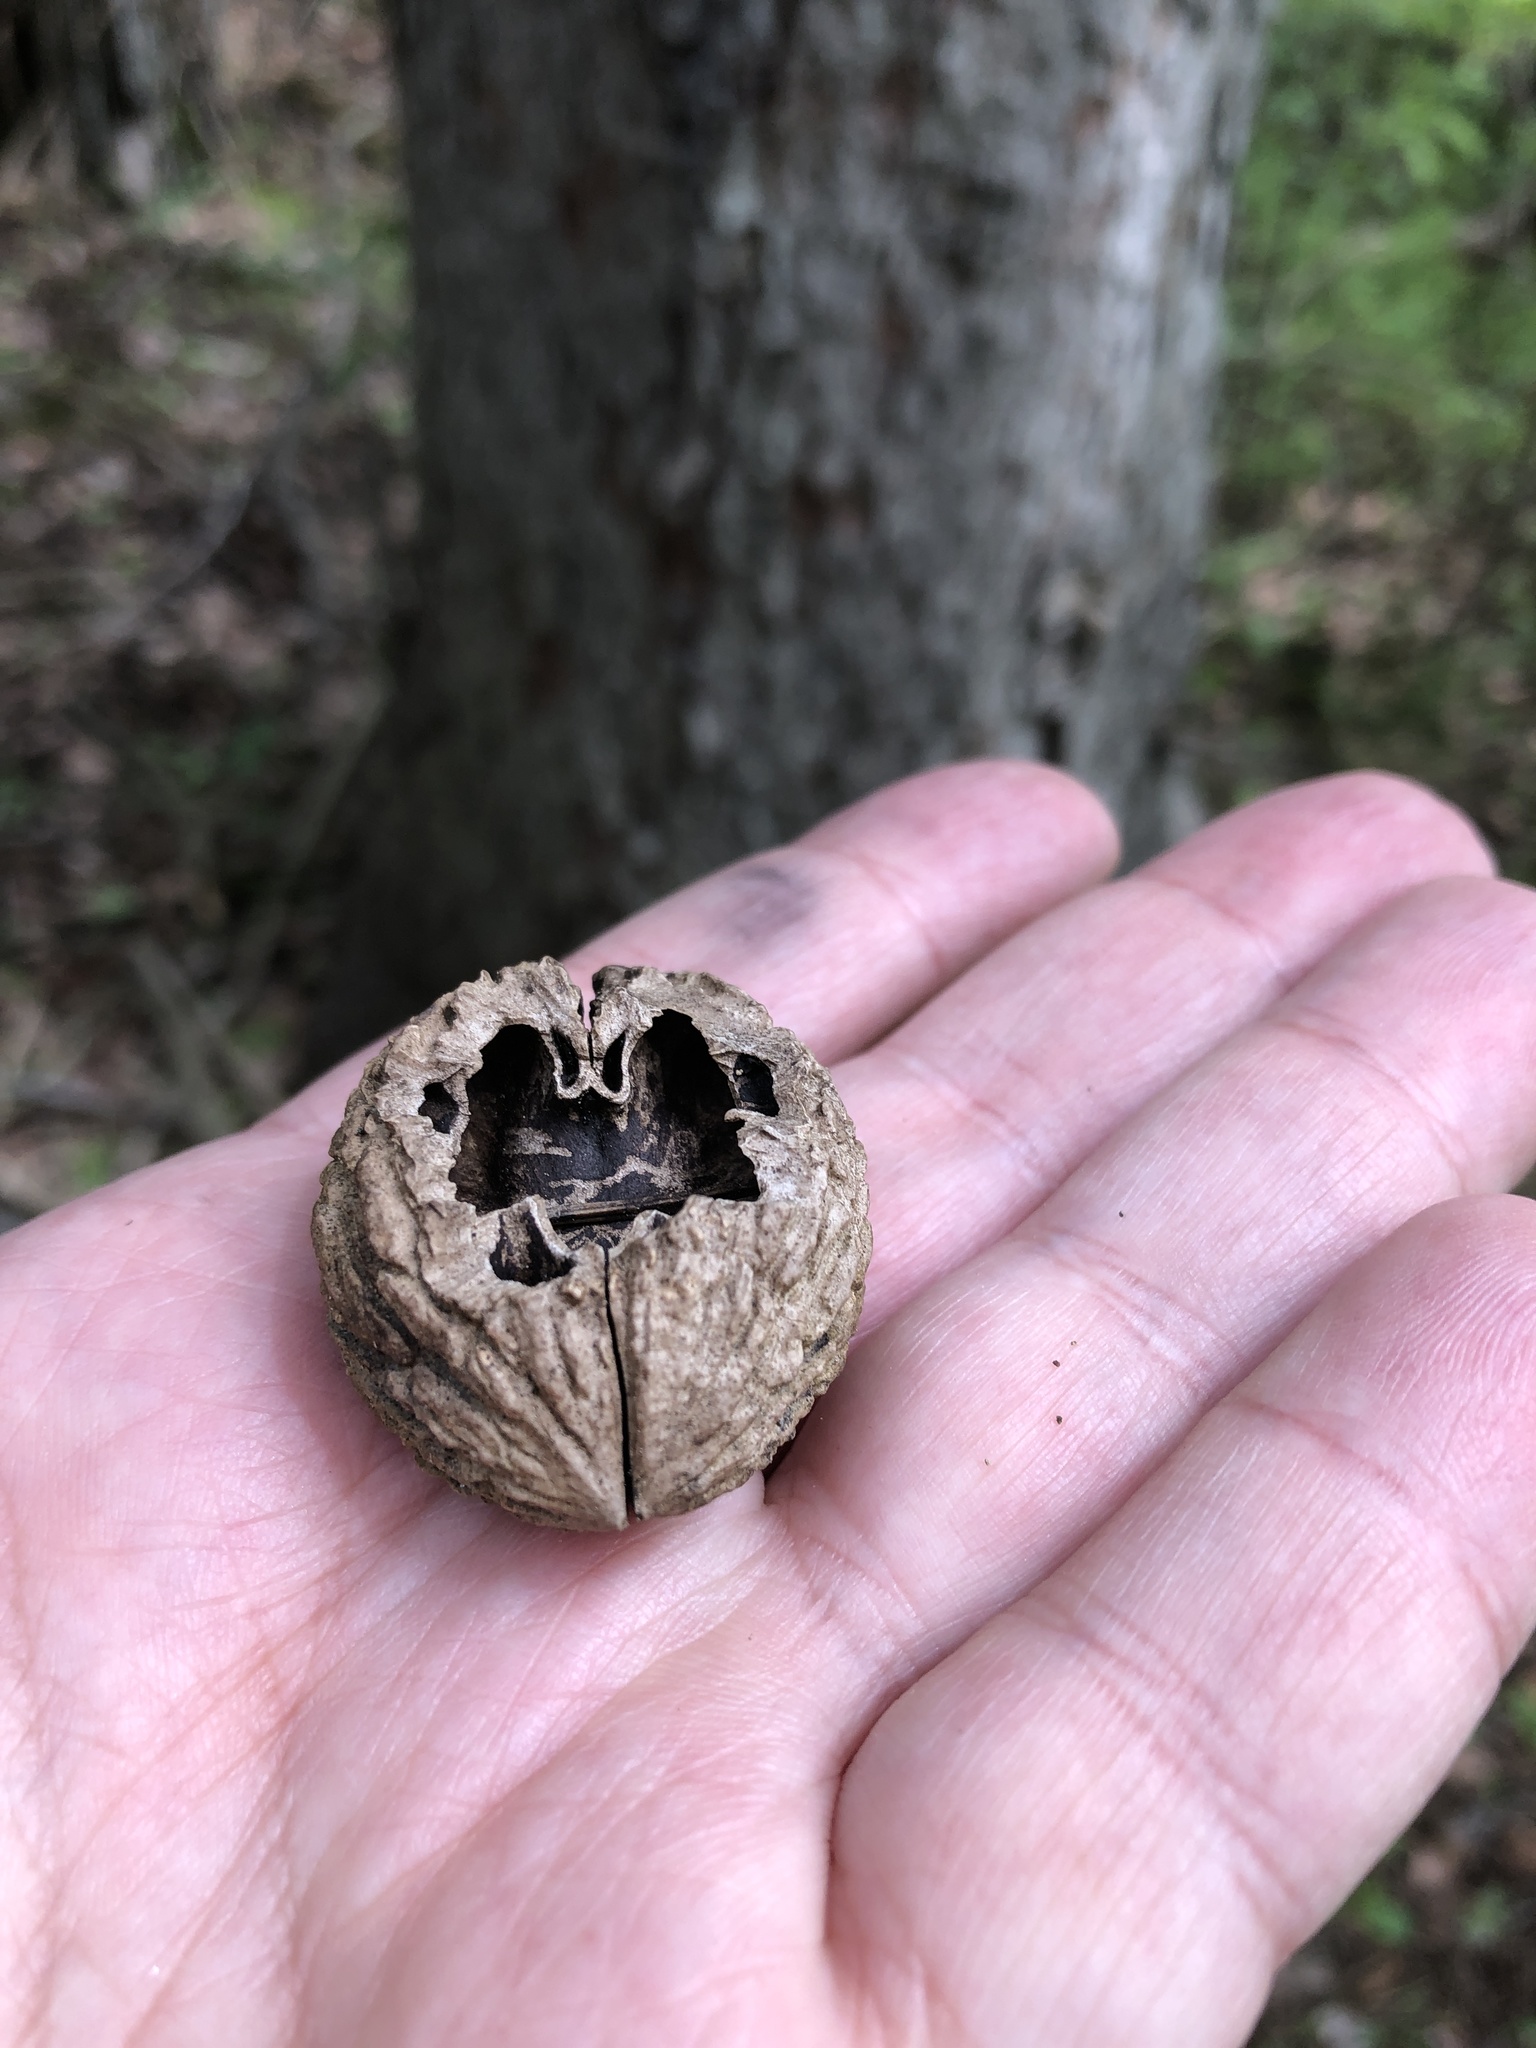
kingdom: Plantae
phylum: Tracheophyta
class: Magnoliopsida
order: Fagales
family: Juglandaceae
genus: Juglans
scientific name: Juglans nigra
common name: Black walnut
